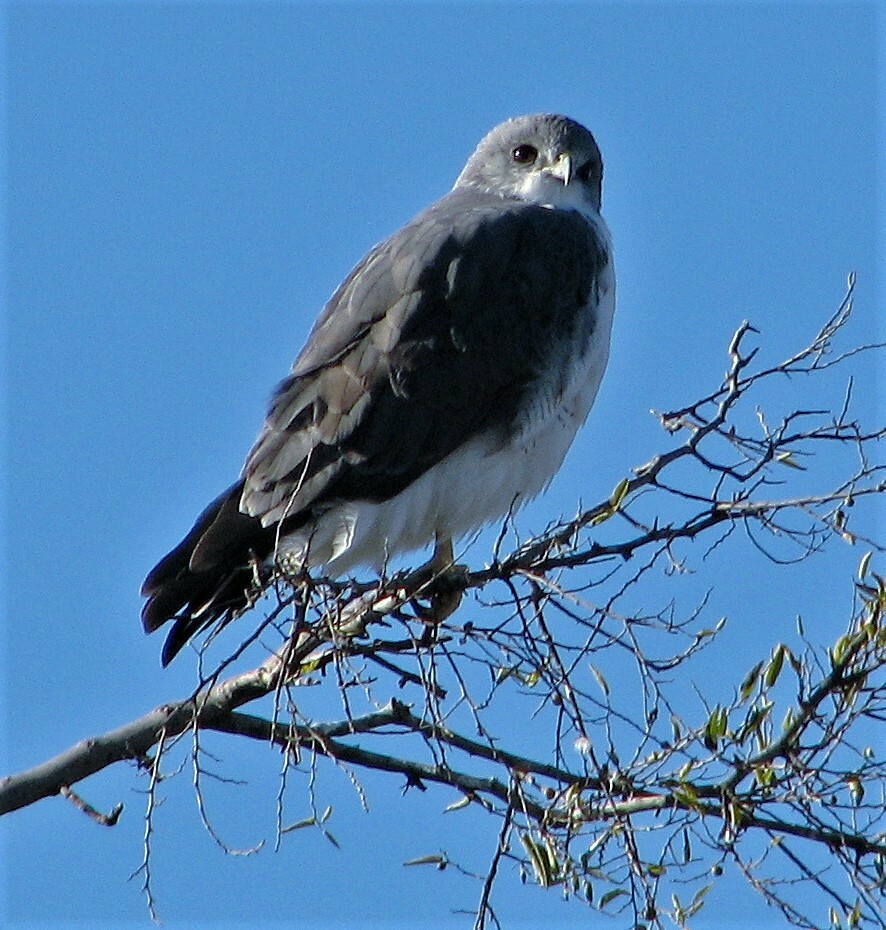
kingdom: Animalia
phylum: Chordata
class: Aves
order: Accipitriformes
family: Accipitridae
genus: Buteo
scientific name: Buteo polyosoma
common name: Variable hawk
